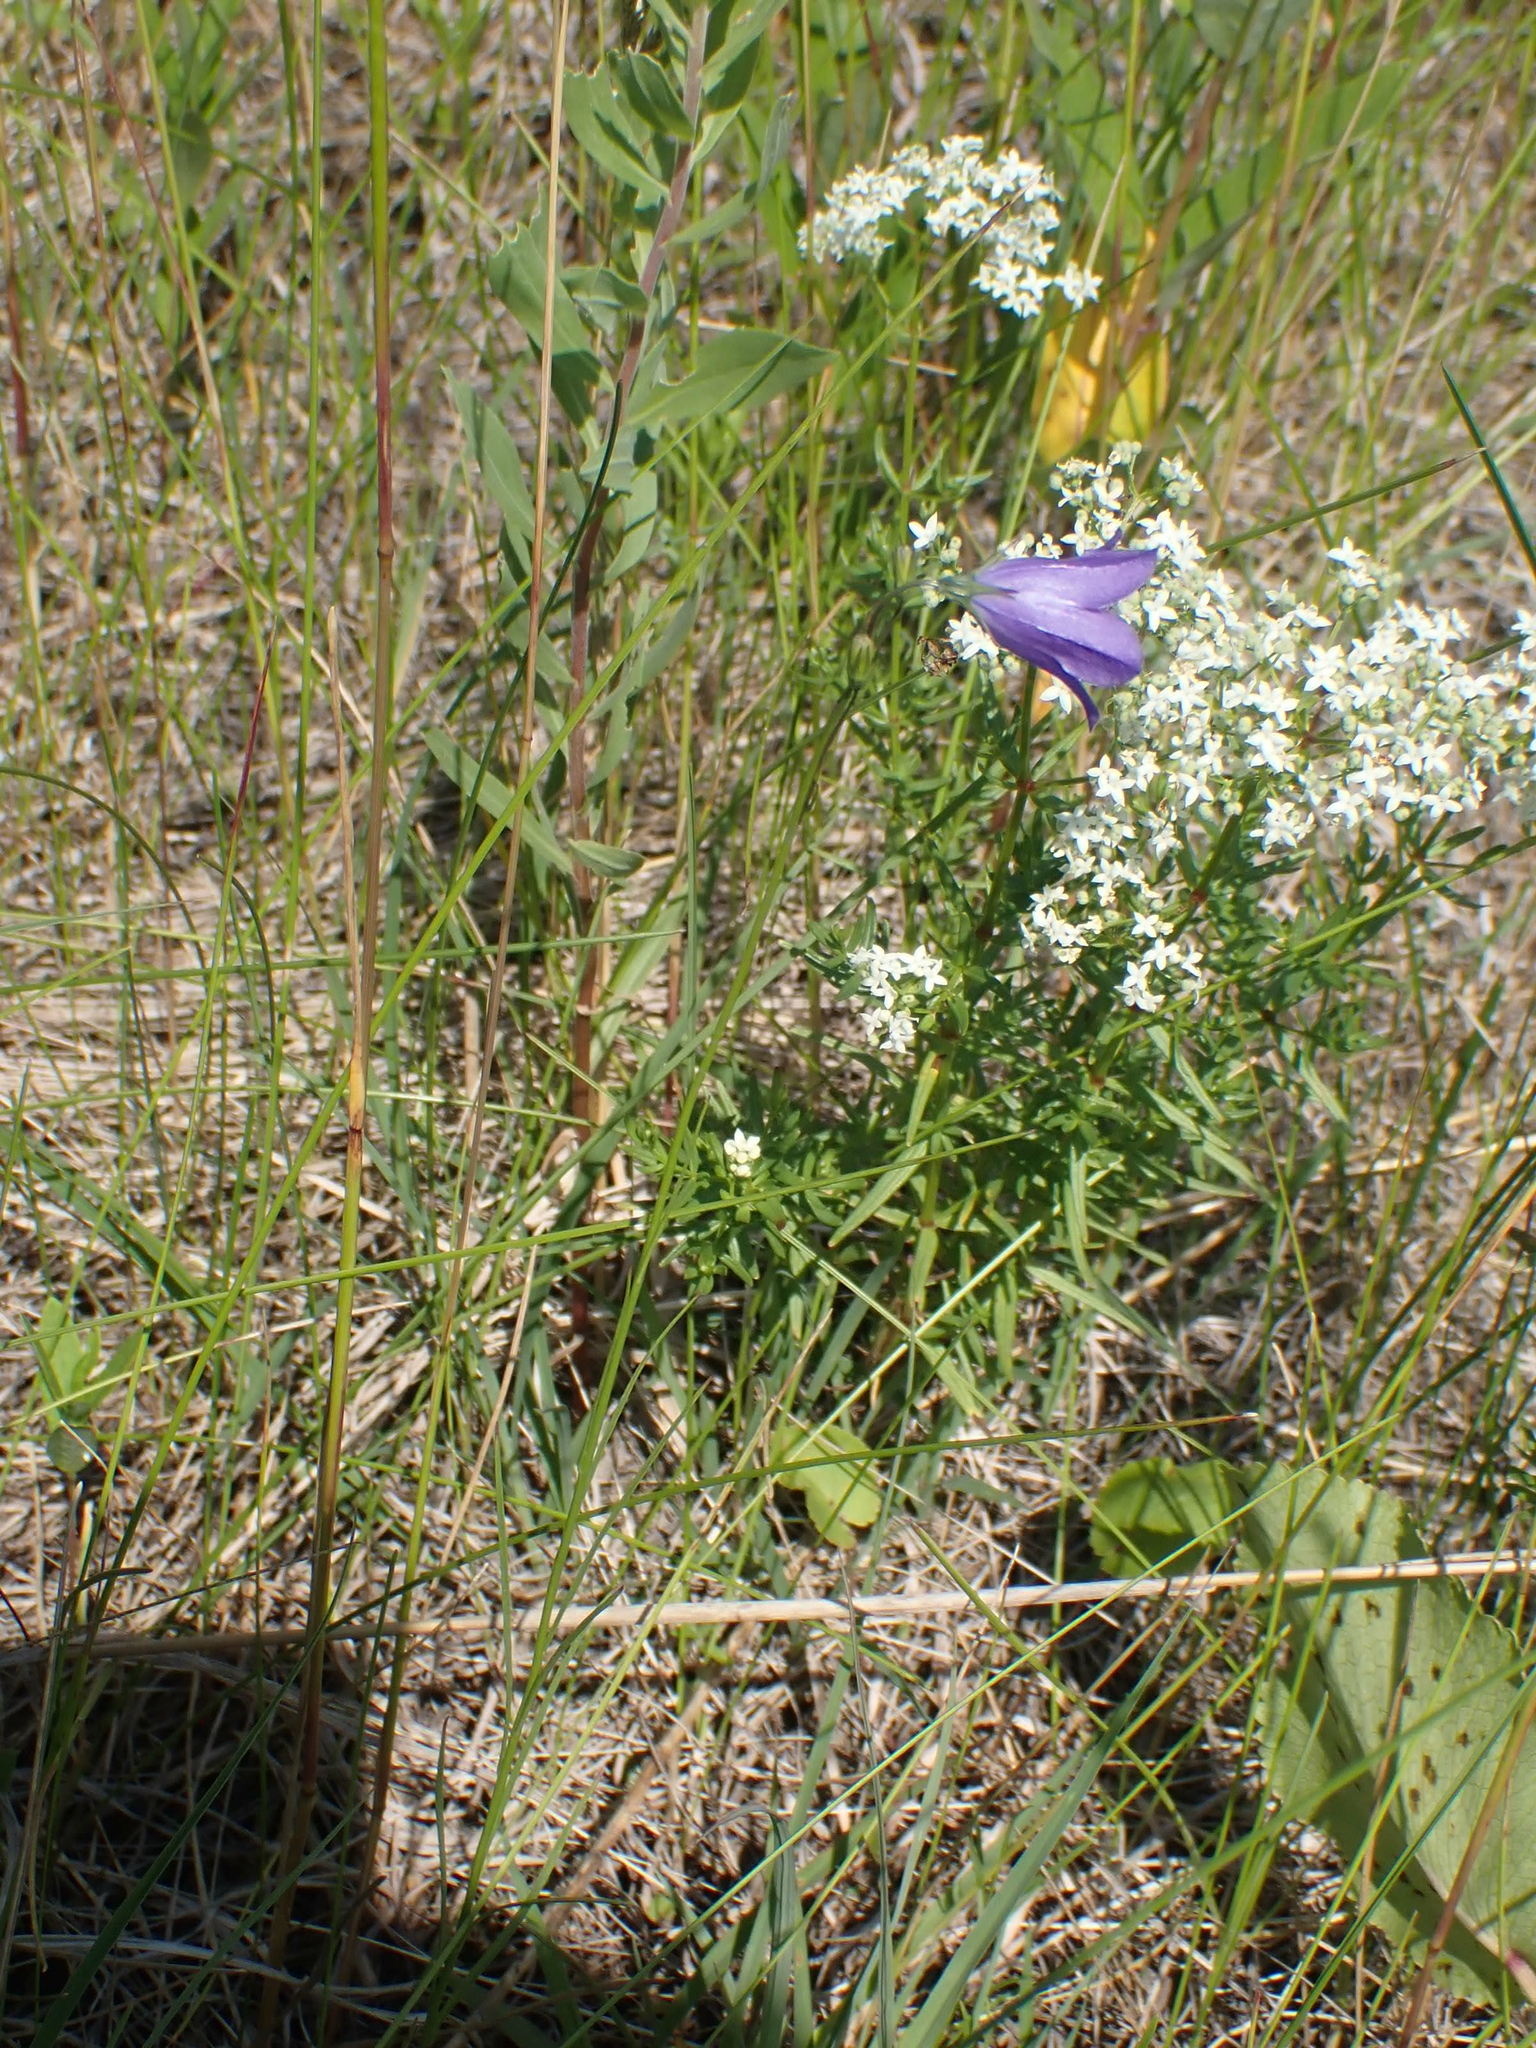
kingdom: Plantae
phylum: Tracheophyta
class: Magnoliopsida
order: Asterales
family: Campanulaceae
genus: Campanula
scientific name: Campanula petiolata
